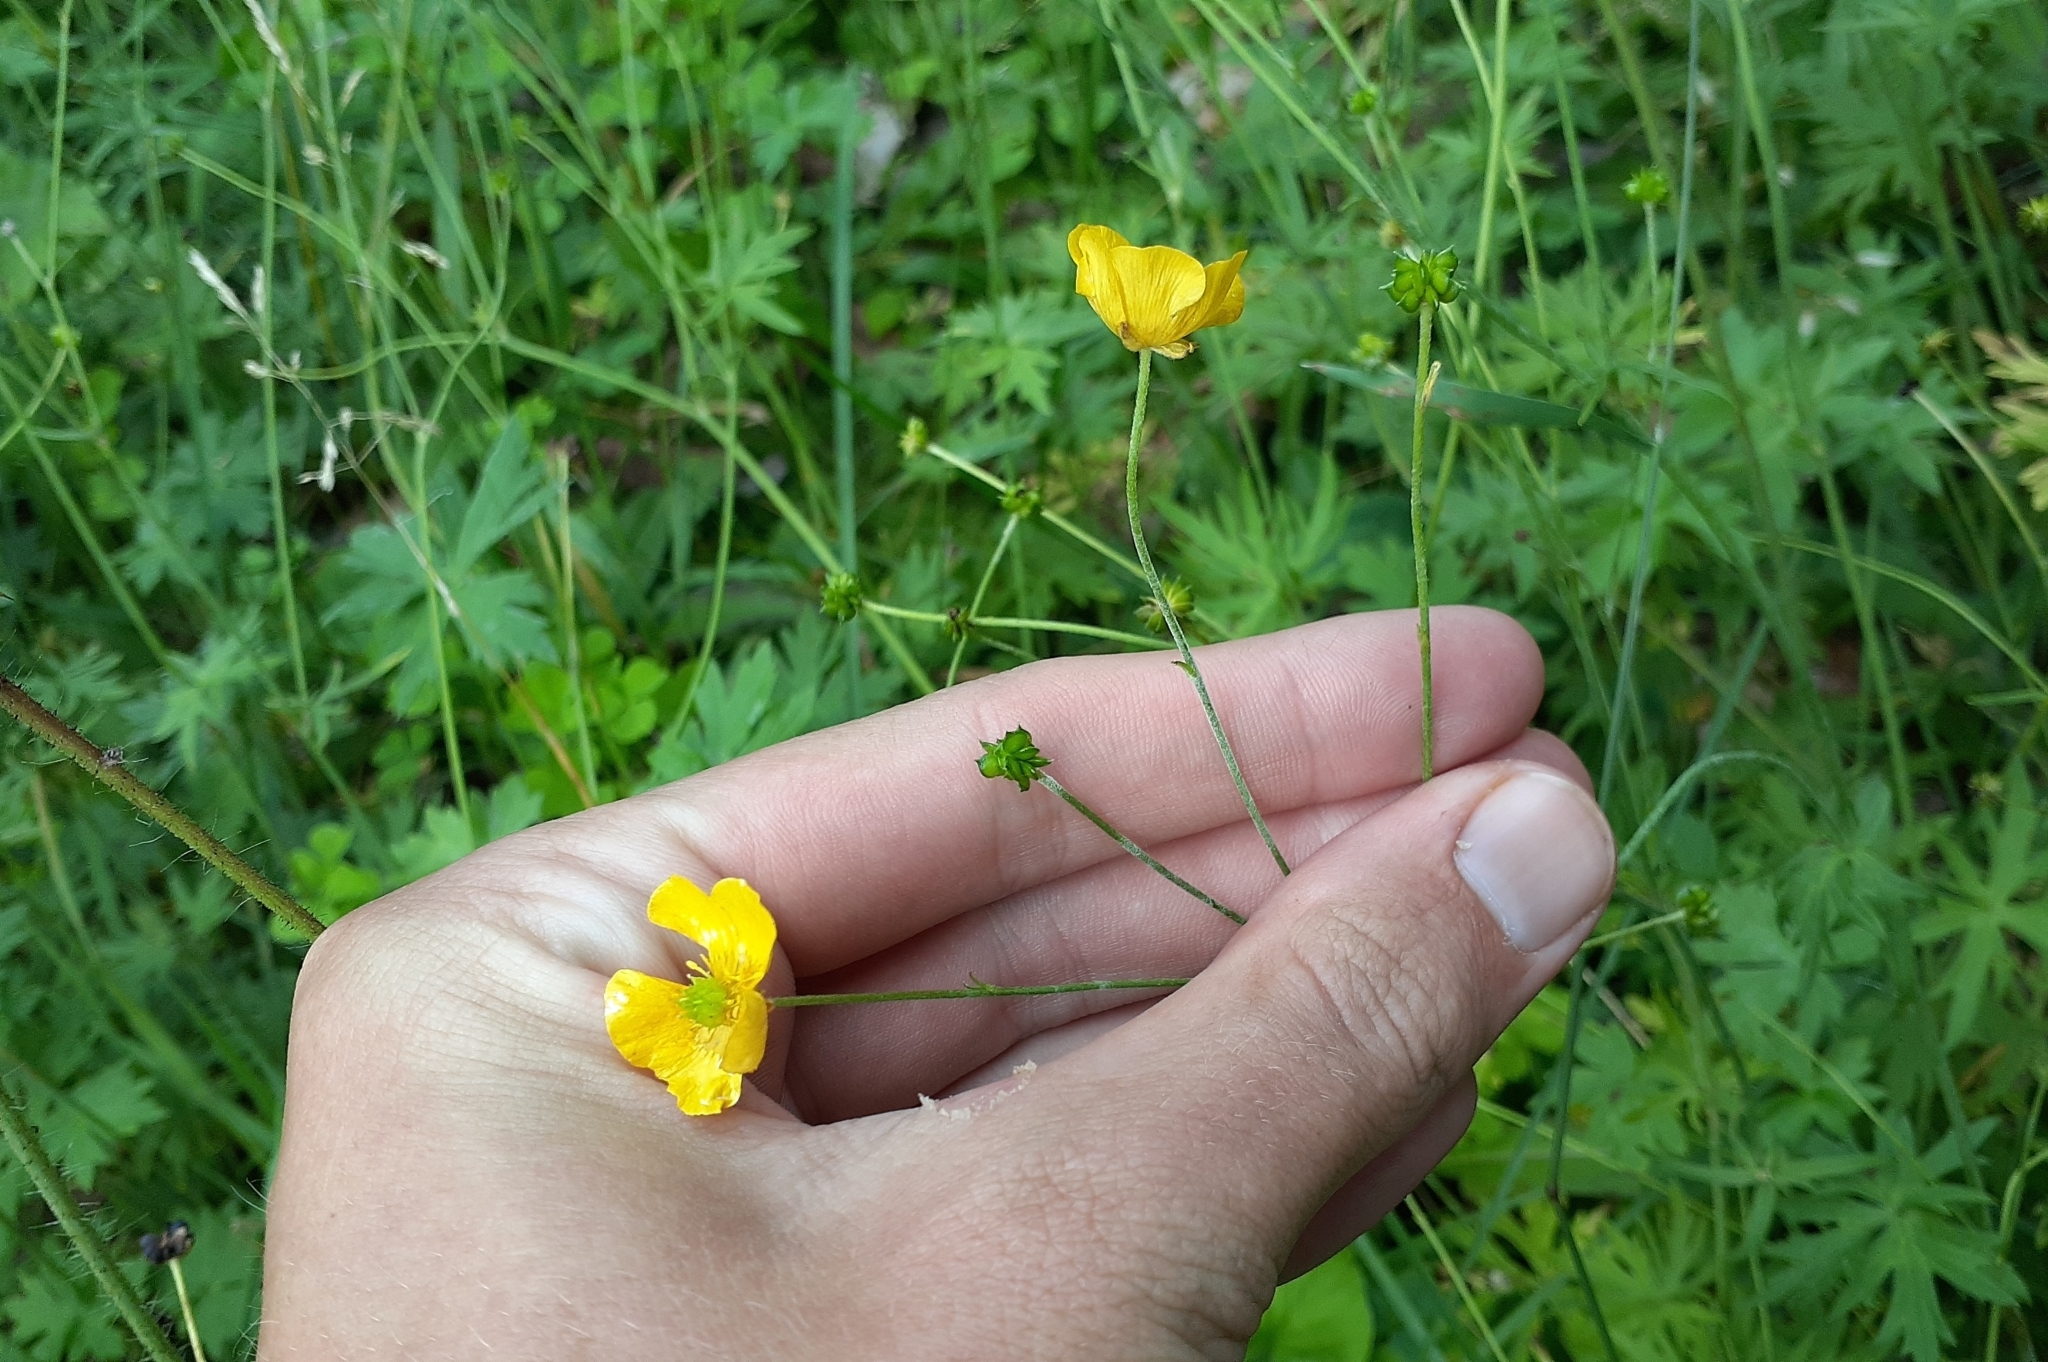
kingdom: Plantae
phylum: Tracheophyta
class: Magnoliopsida
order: Ranunculales
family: Ranunculaceae
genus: Ranunculus
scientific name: Ranunculus acris
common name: Meadow buttercup
